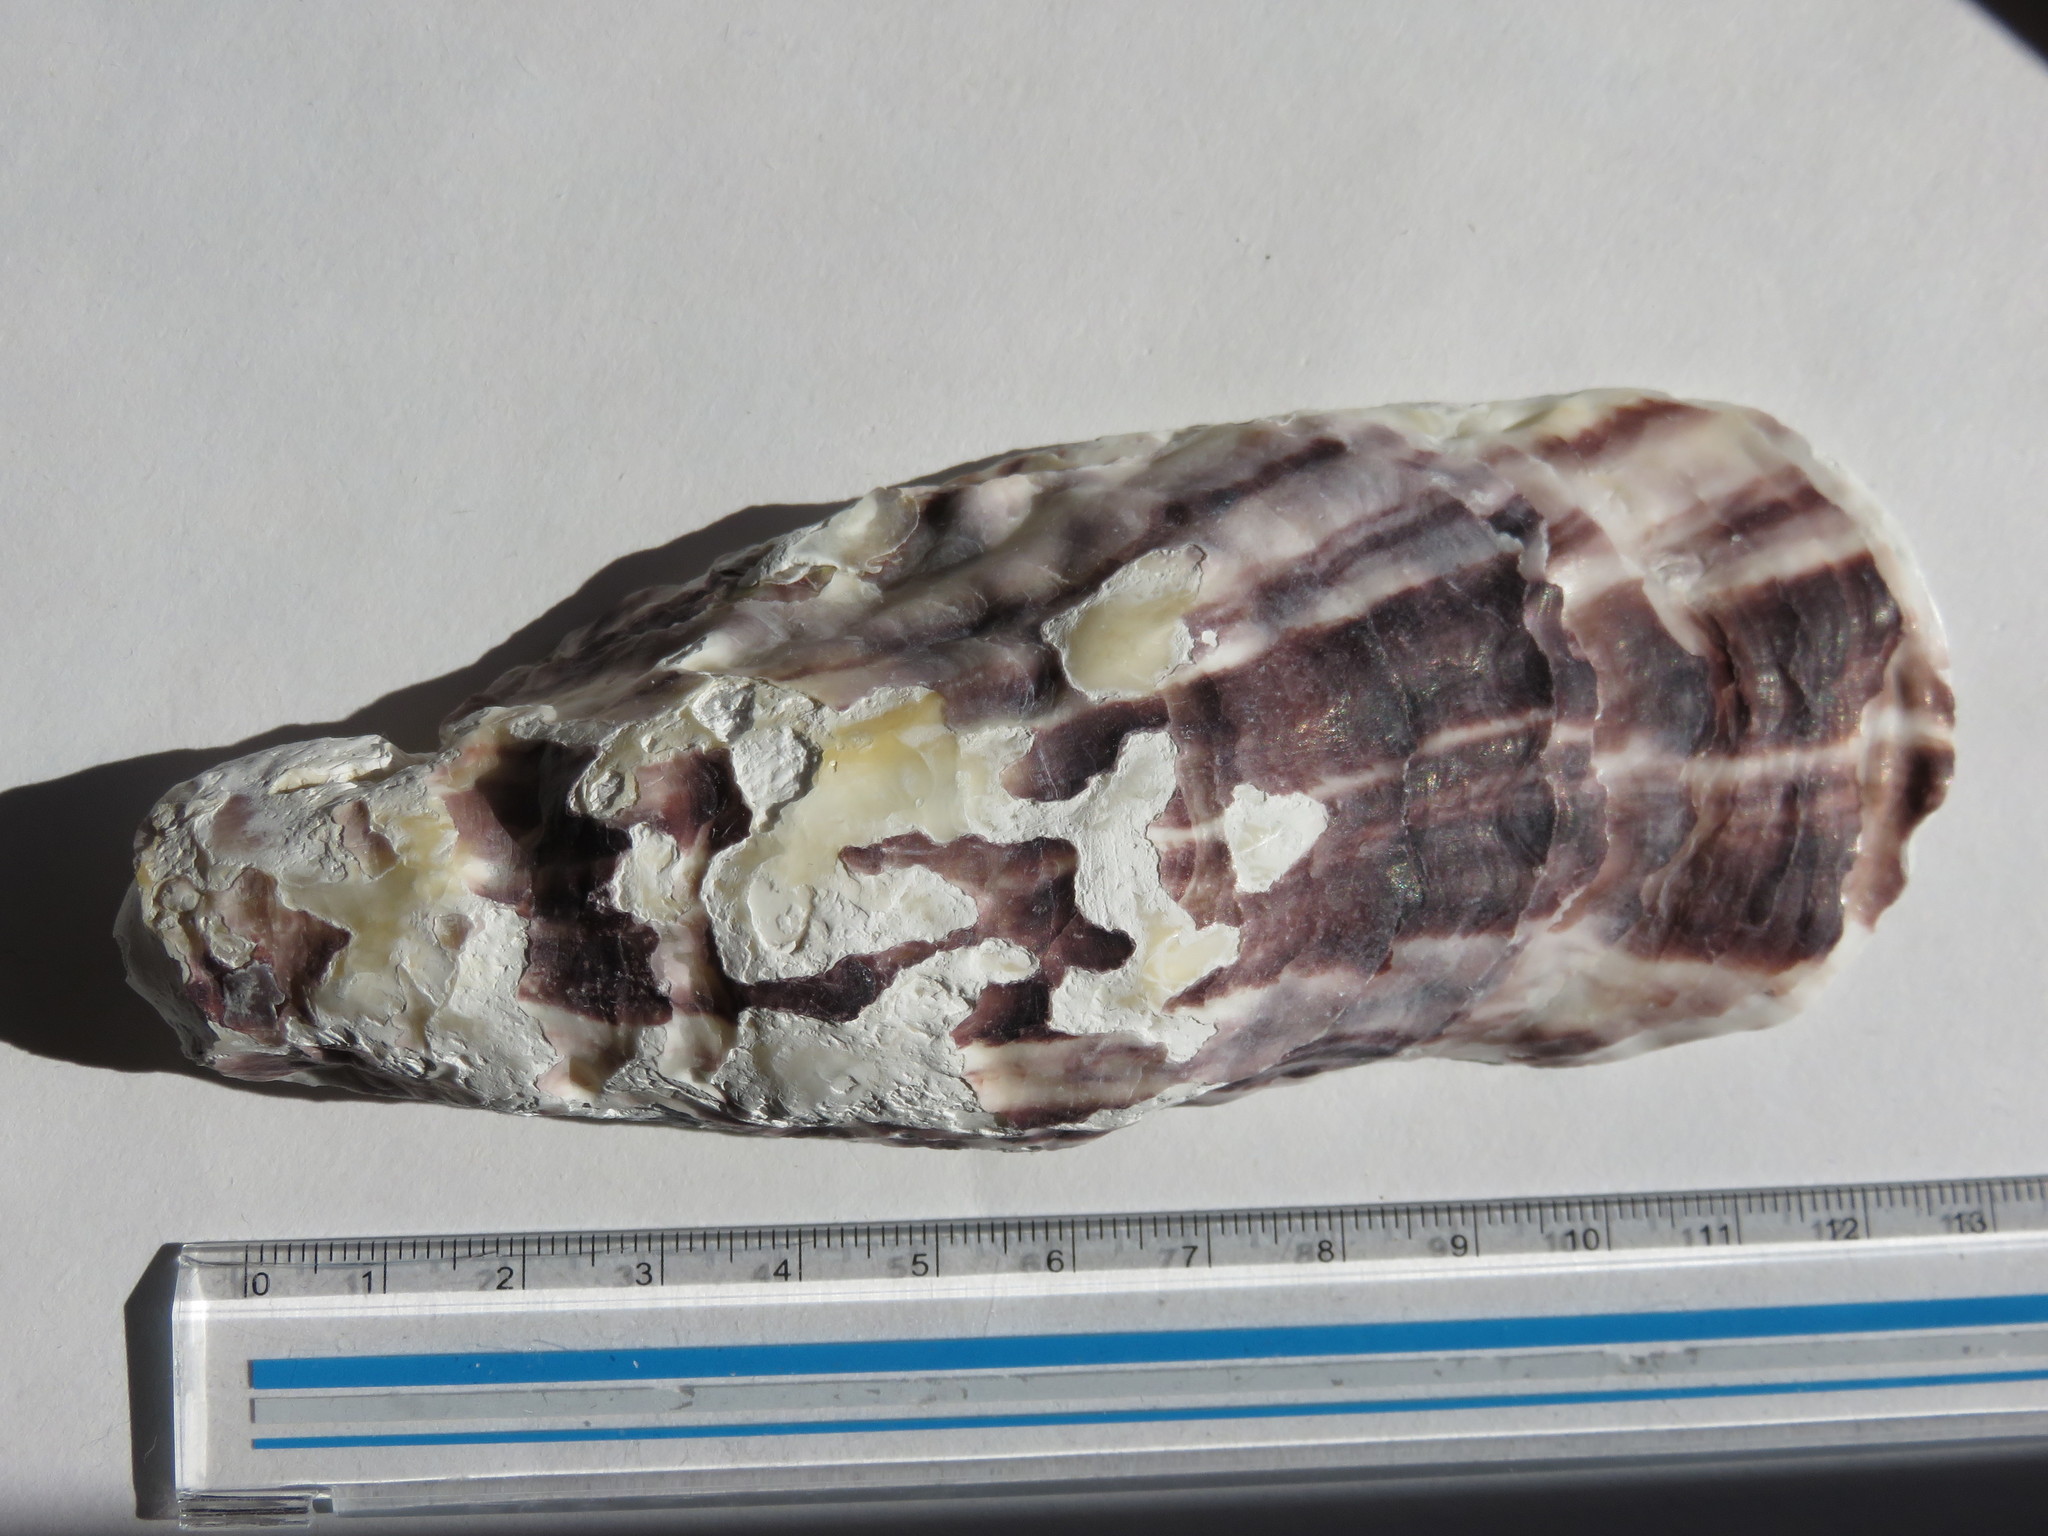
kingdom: Animalia
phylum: Mollusca
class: Bivalvia
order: Ostreida
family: Ostreidae
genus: Magallana
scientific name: Magallana gigas
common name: Pacific oyster
